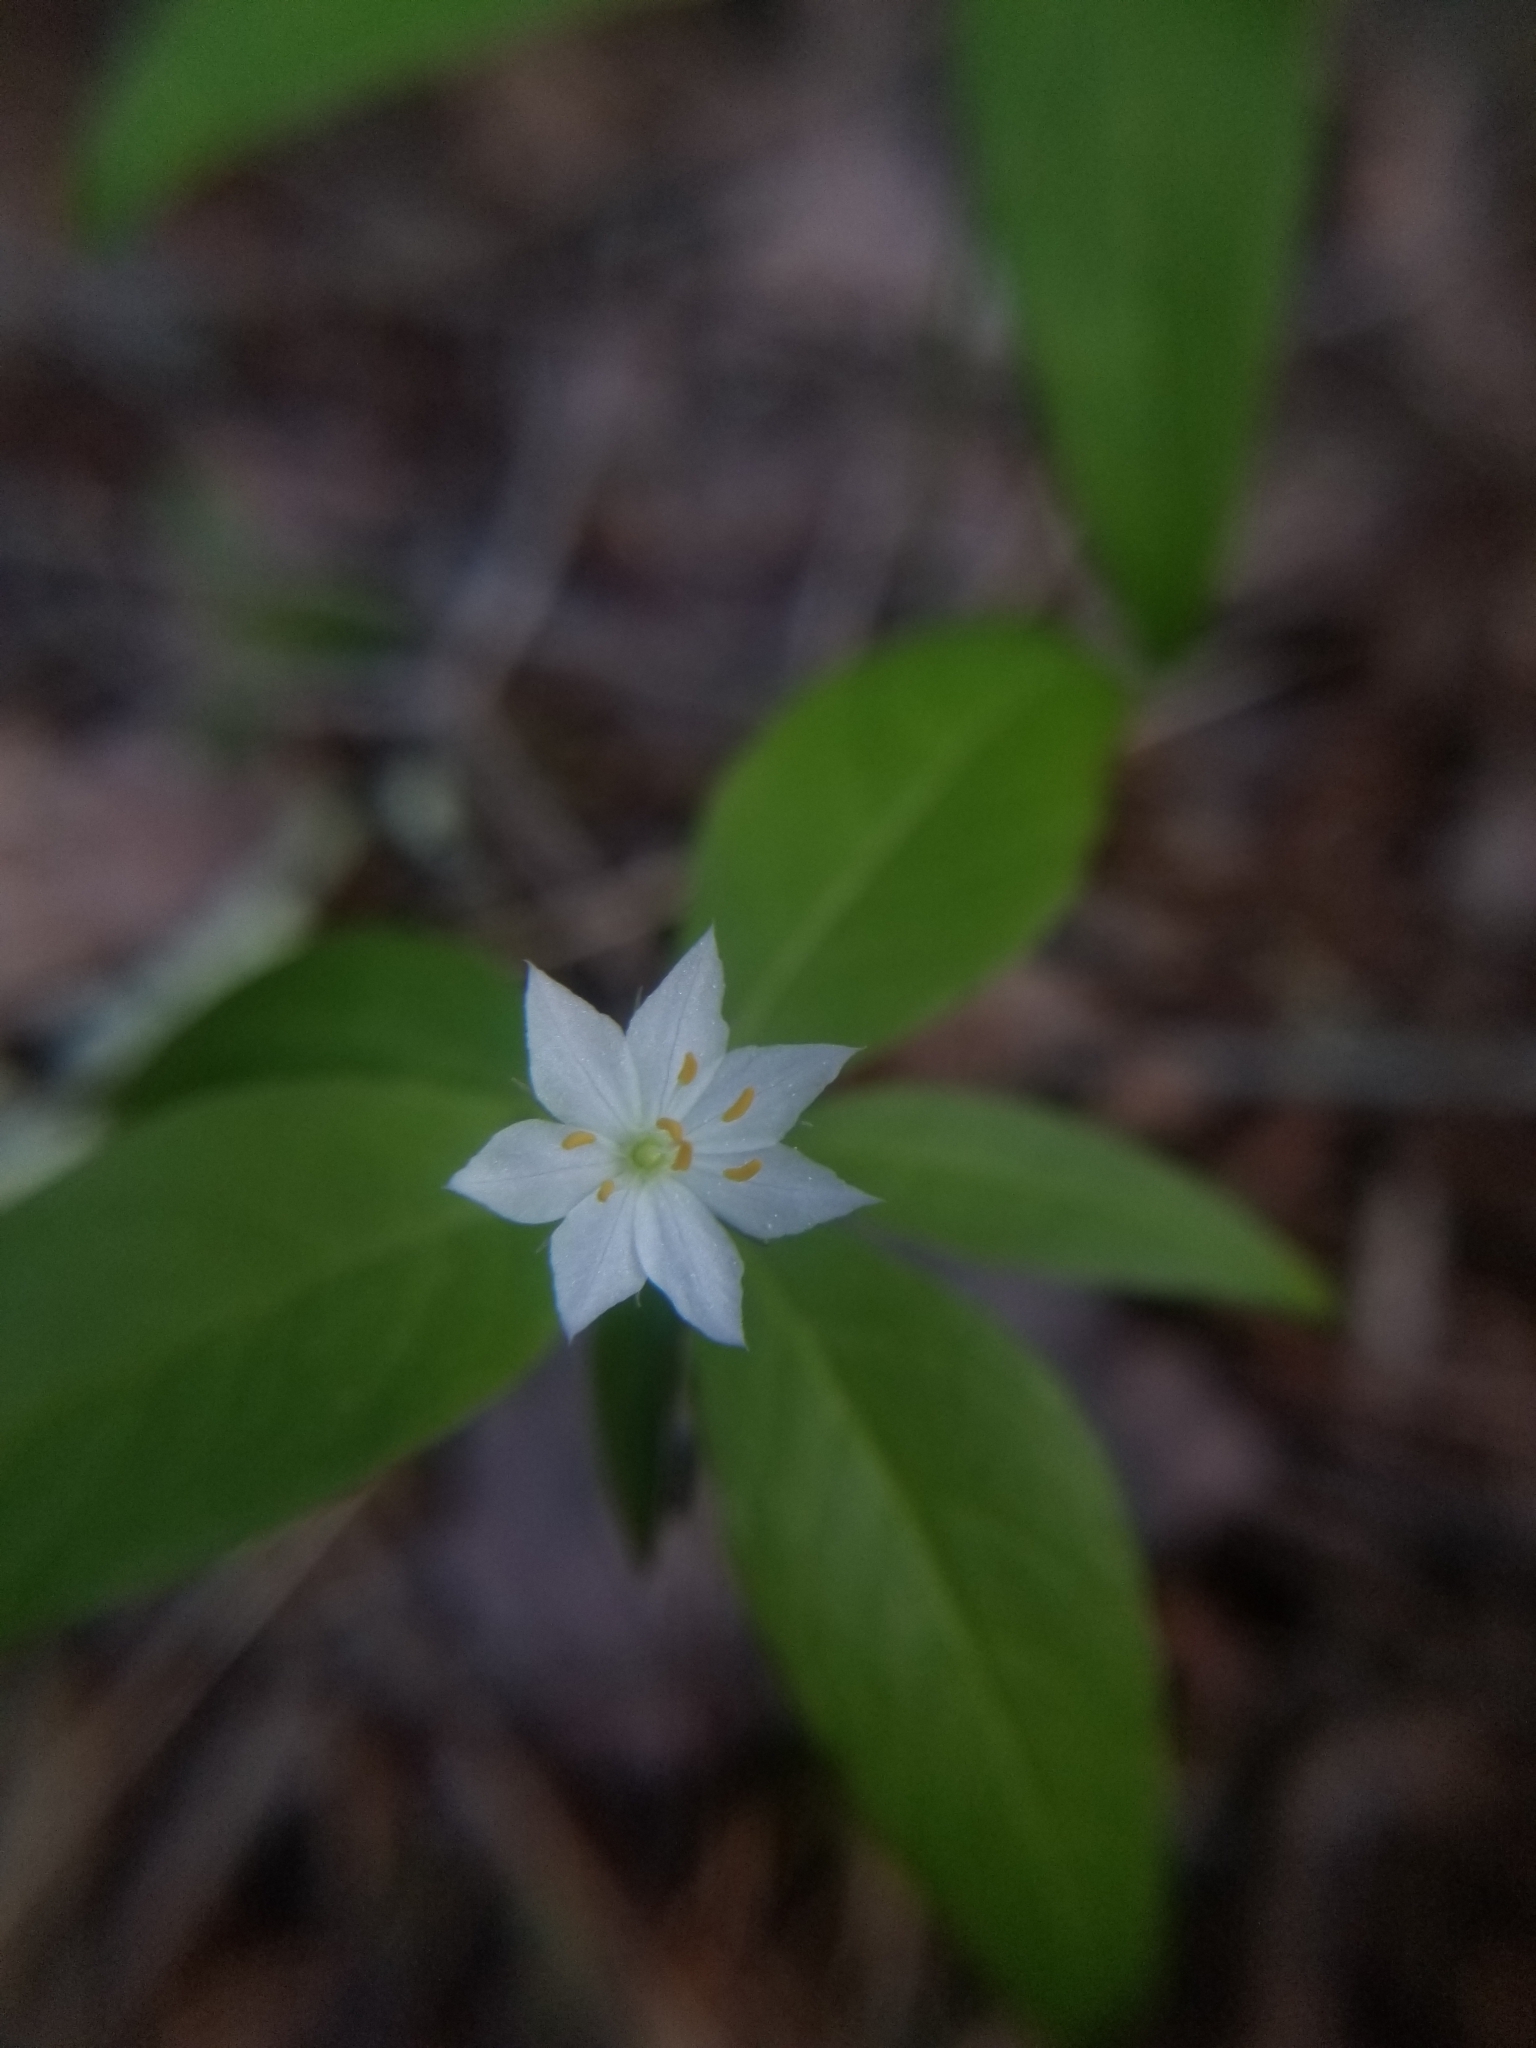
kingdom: Plantae
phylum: Tracheophyta
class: Magnoliopsida
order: Ericales
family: Primulaceae
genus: Lysimachia
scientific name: Lysimachia borealis
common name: American starflower
